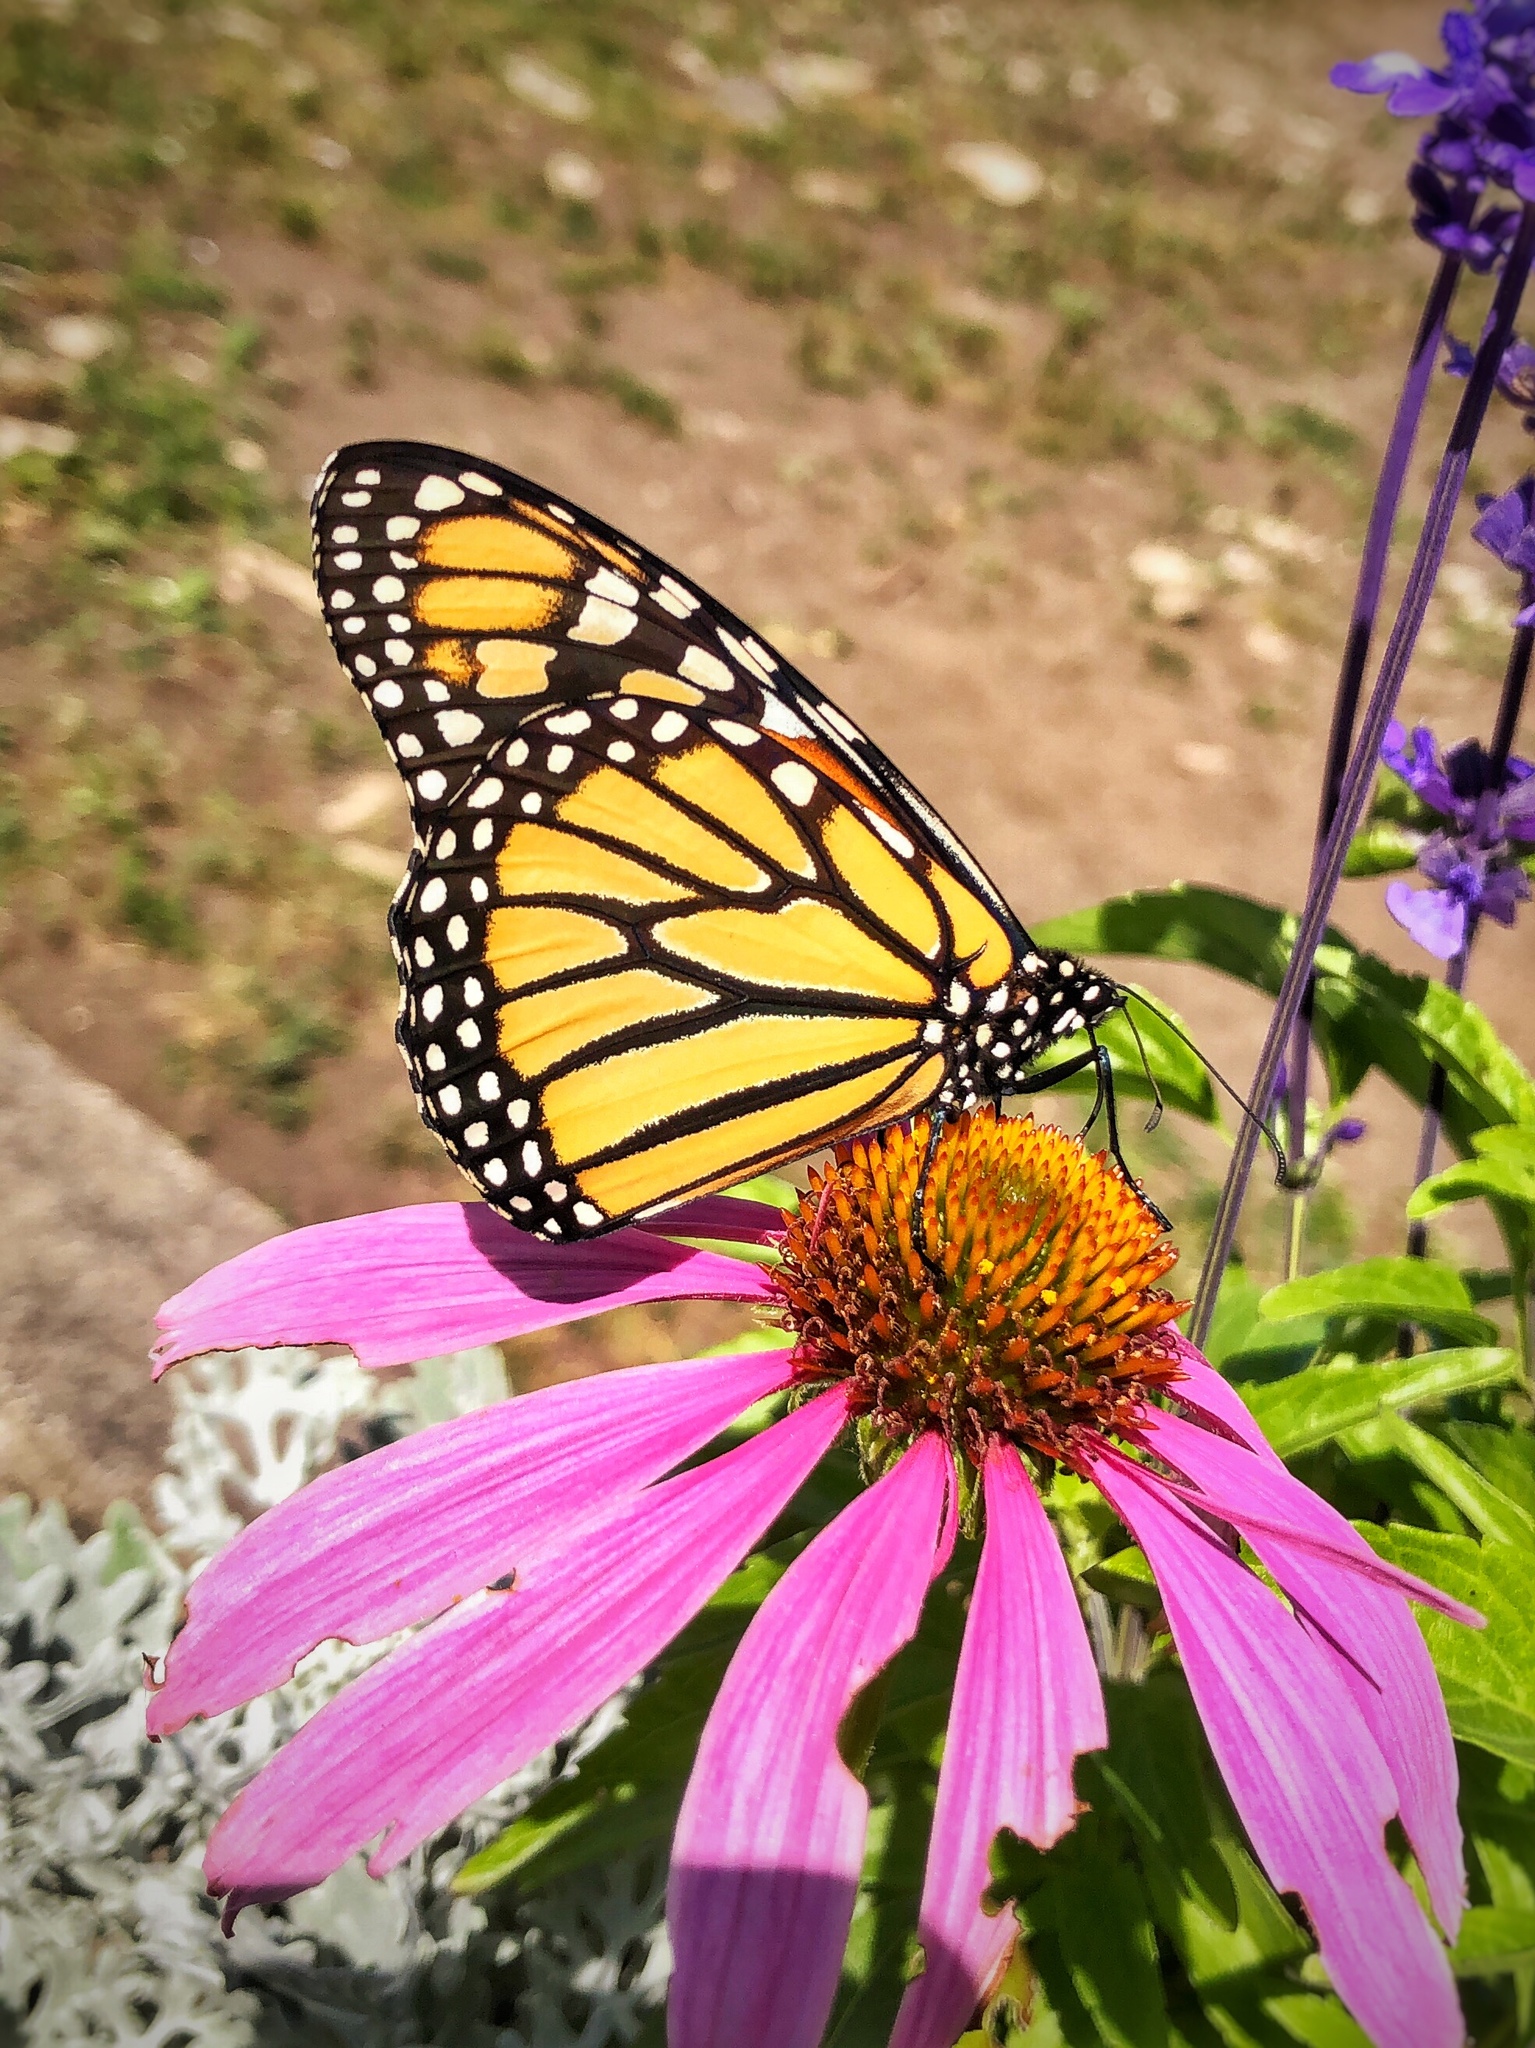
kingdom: Animalia
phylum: Arthropoda
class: Insecta
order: Lepidoptera
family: Nymphalidae
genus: Danaus
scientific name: Danaus plexippus
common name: Monarch
